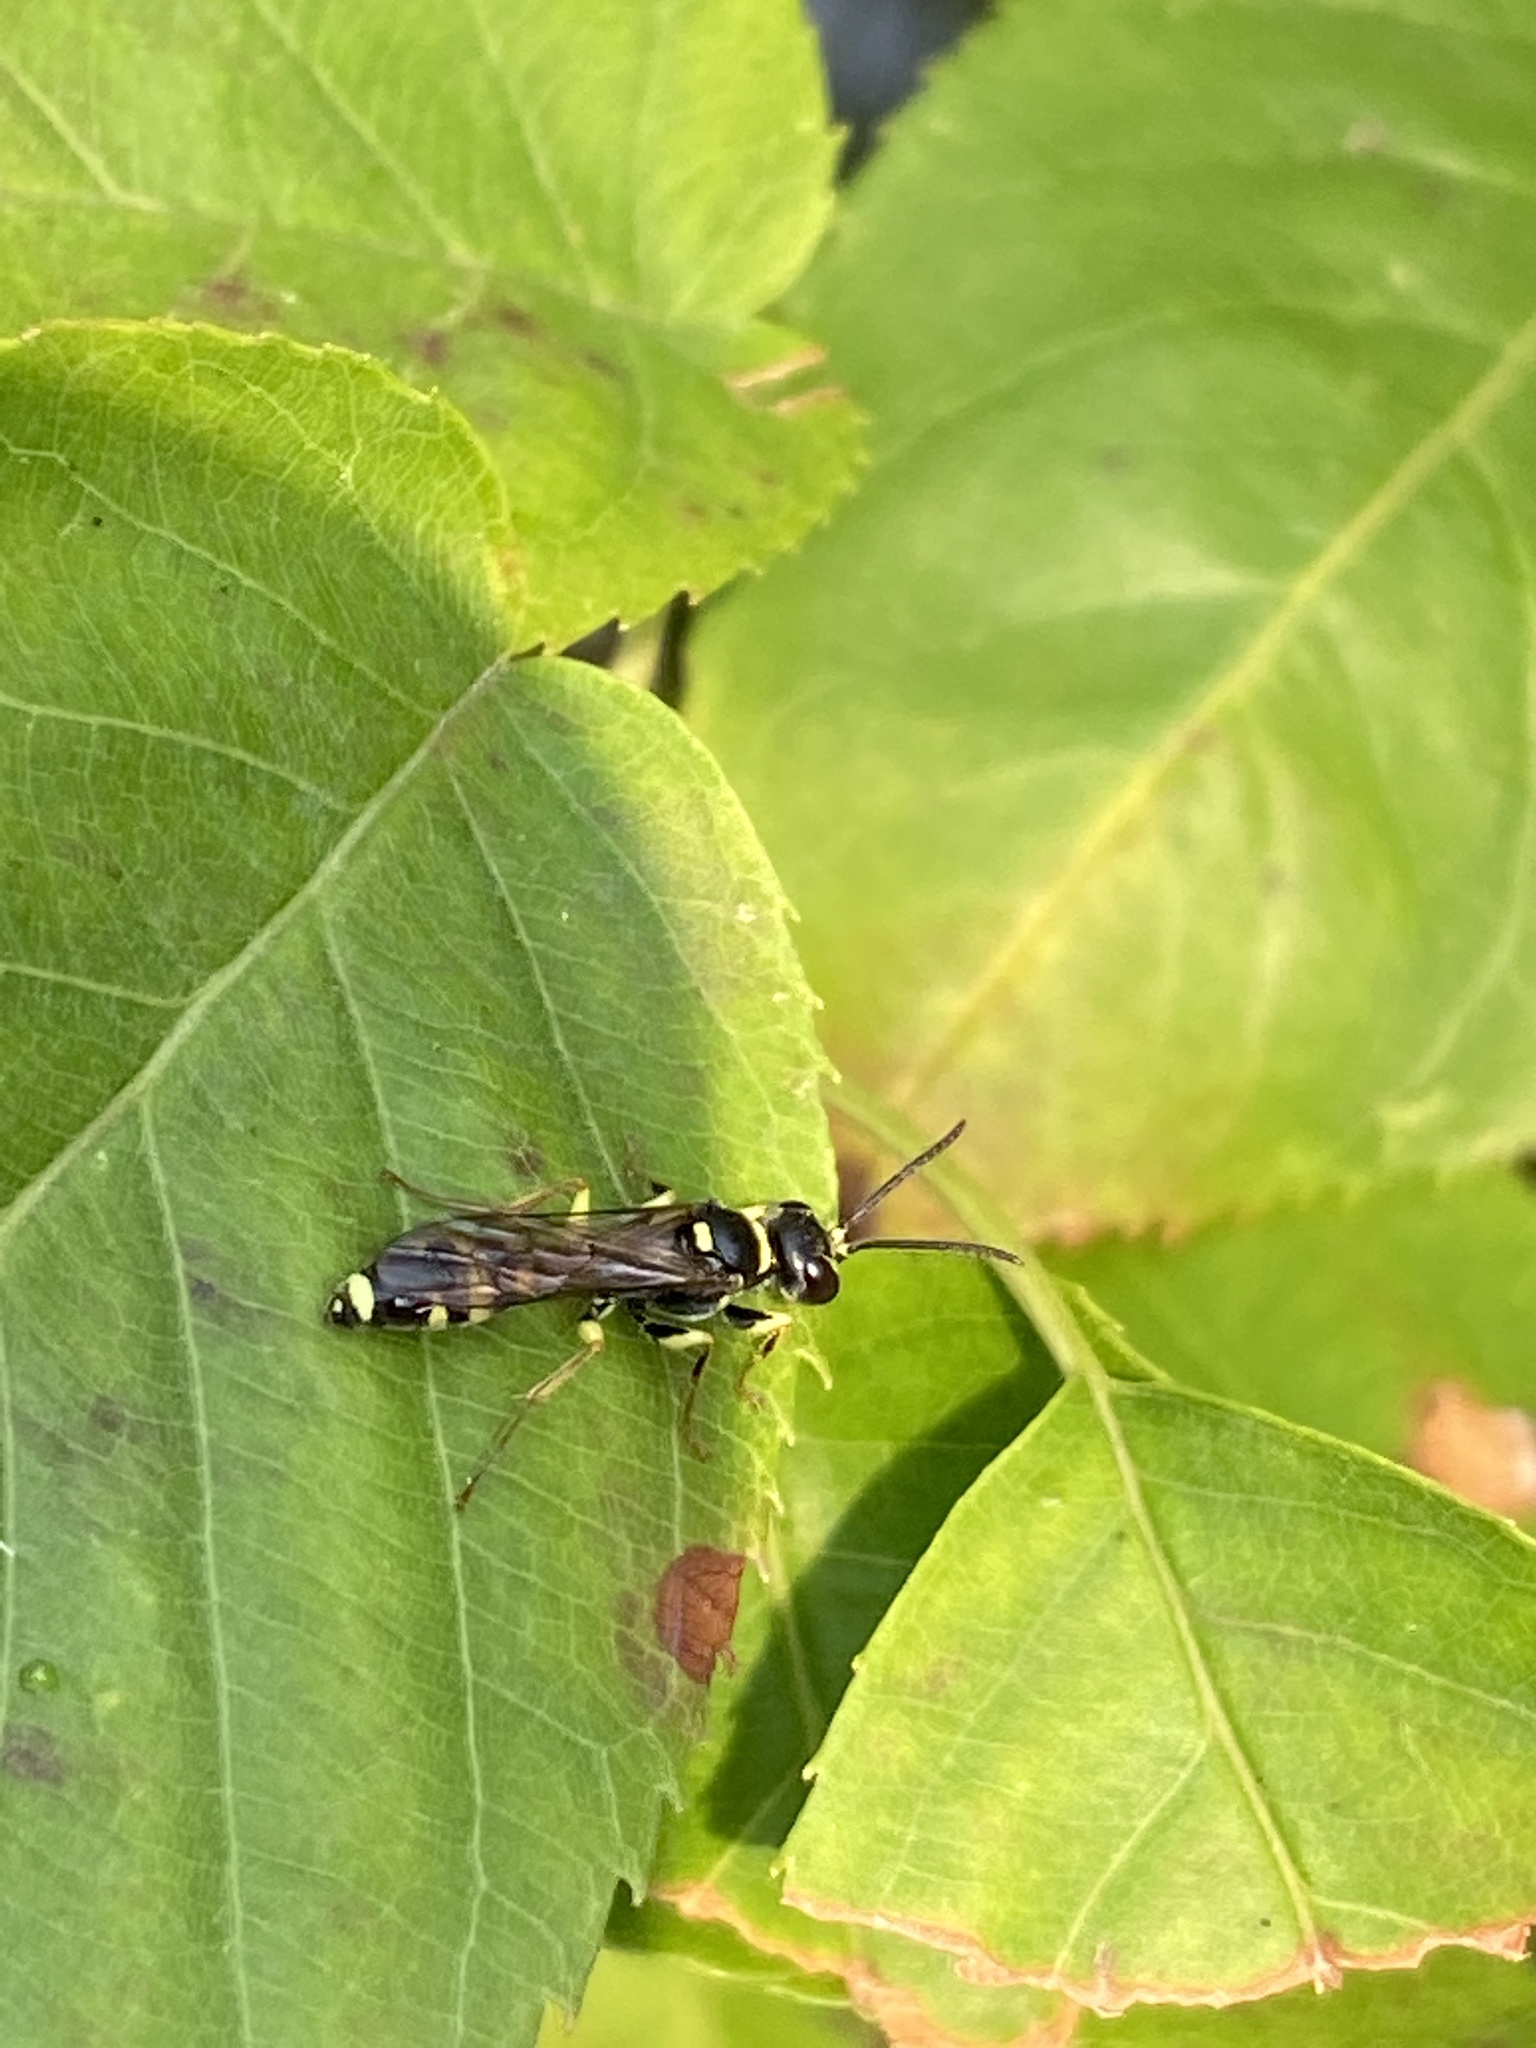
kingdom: Animalia
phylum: Arthropoda
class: Insecta
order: Hymenoptera
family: Crabronidae
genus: Mellinus
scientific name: Mellinus arvensis
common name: Field digger wasp
